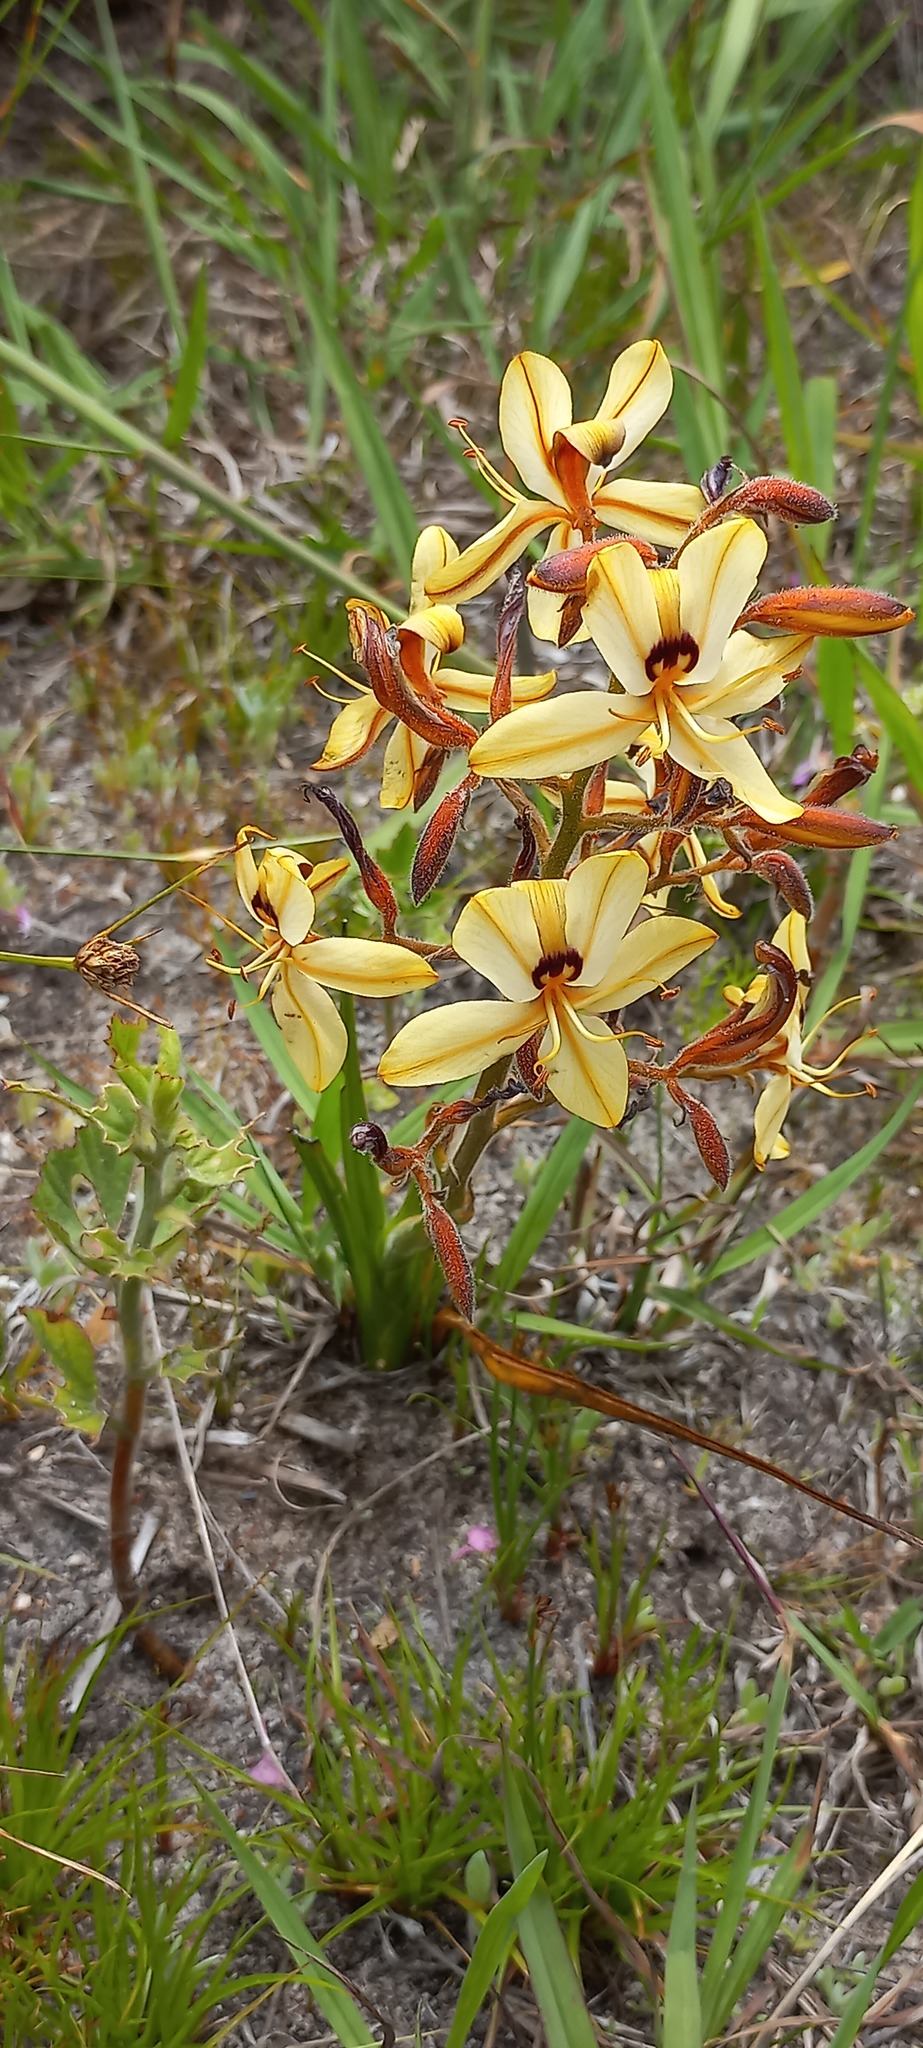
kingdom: Plantae
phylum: Tracheophyta
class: Liliopsida
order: Commelinales
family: Haemodoraceae
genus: Wachendorfia
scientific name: Wachendorfia paniculata
